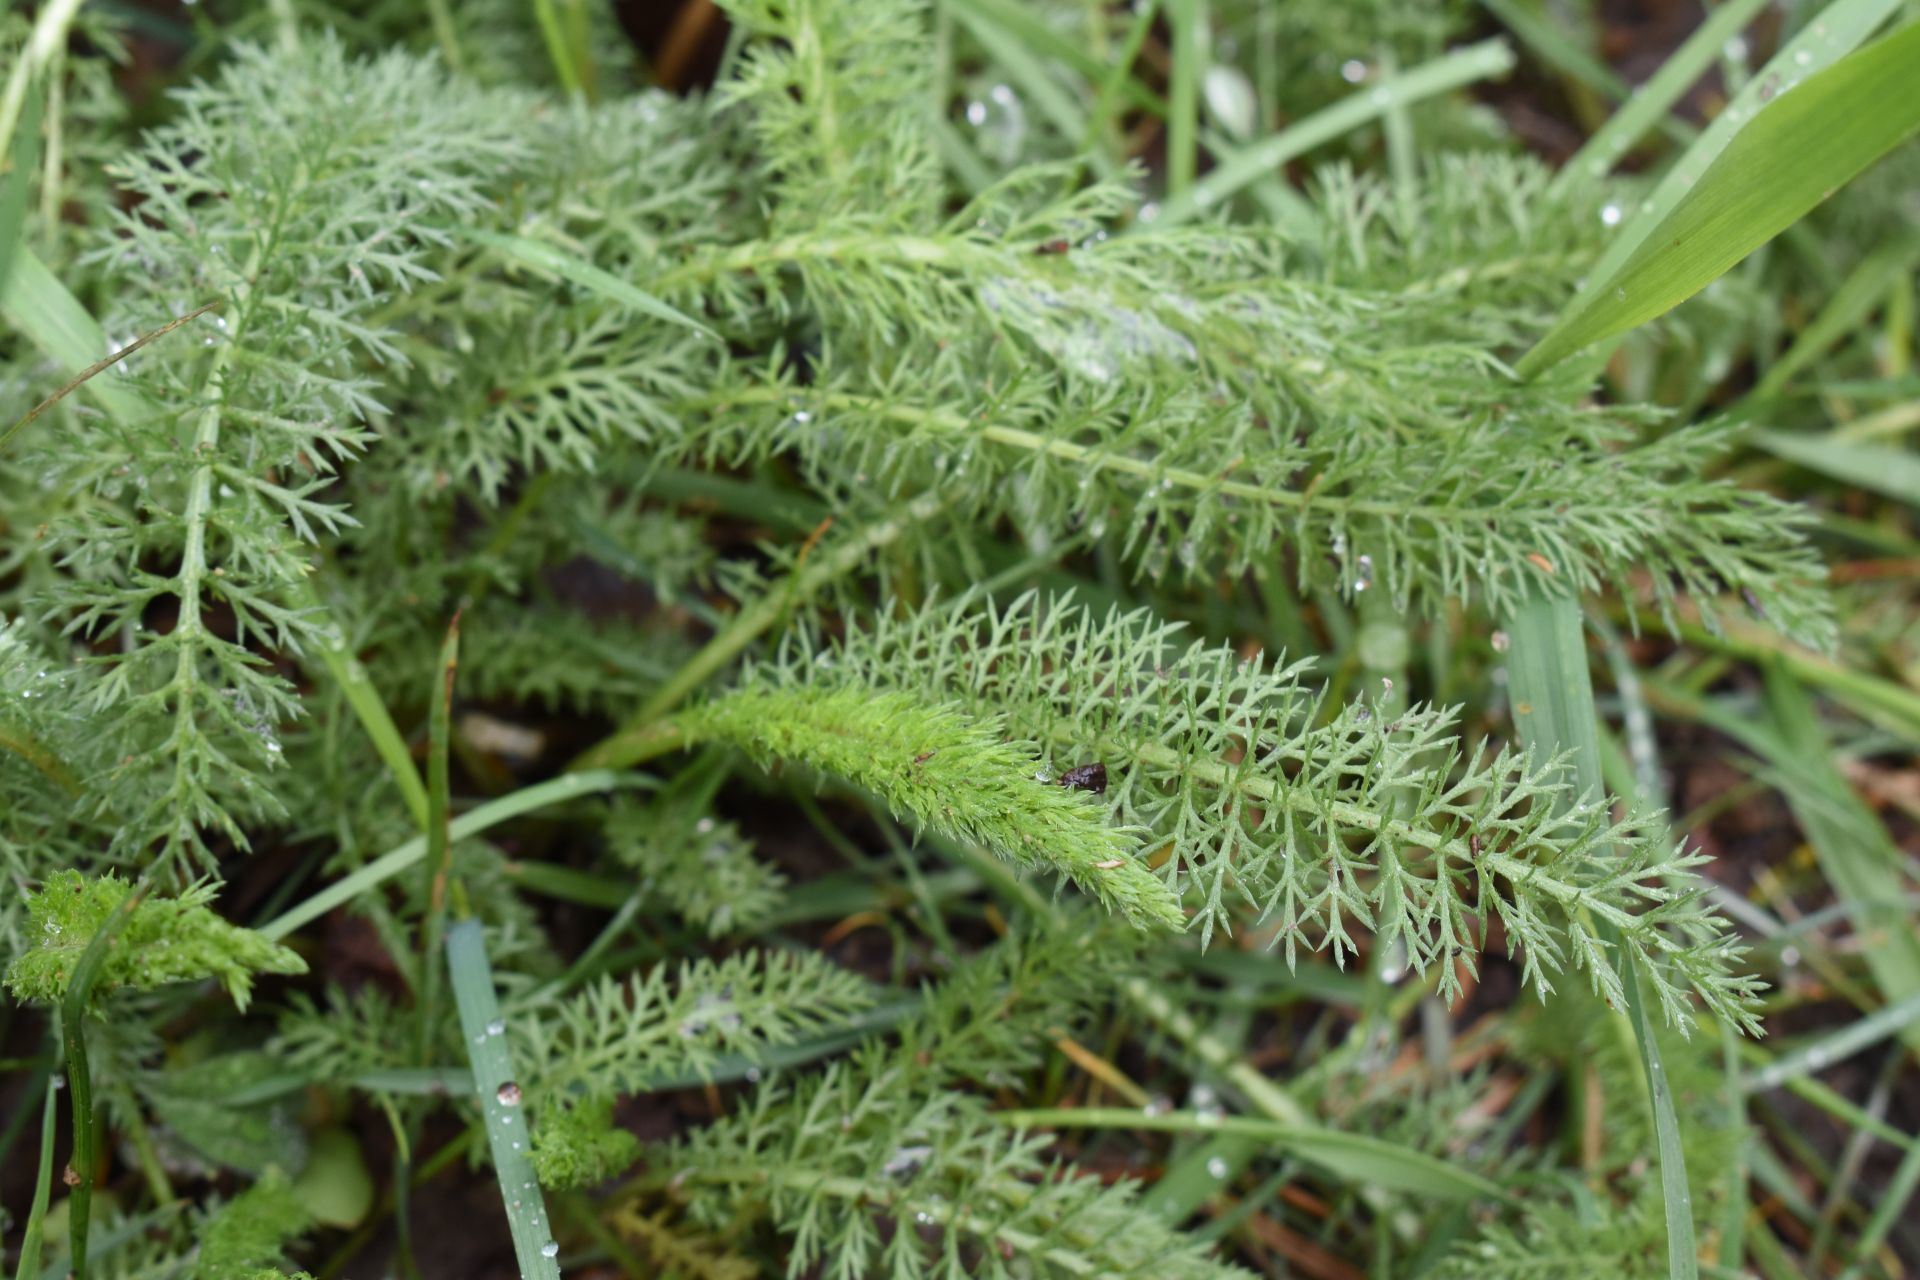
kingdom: Plantae
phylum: Tracheophyta
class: Magnoliopsida
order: Asterales
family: Asteraceae
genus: Achillea
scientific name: Achillea millefolium
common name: Yarrow
